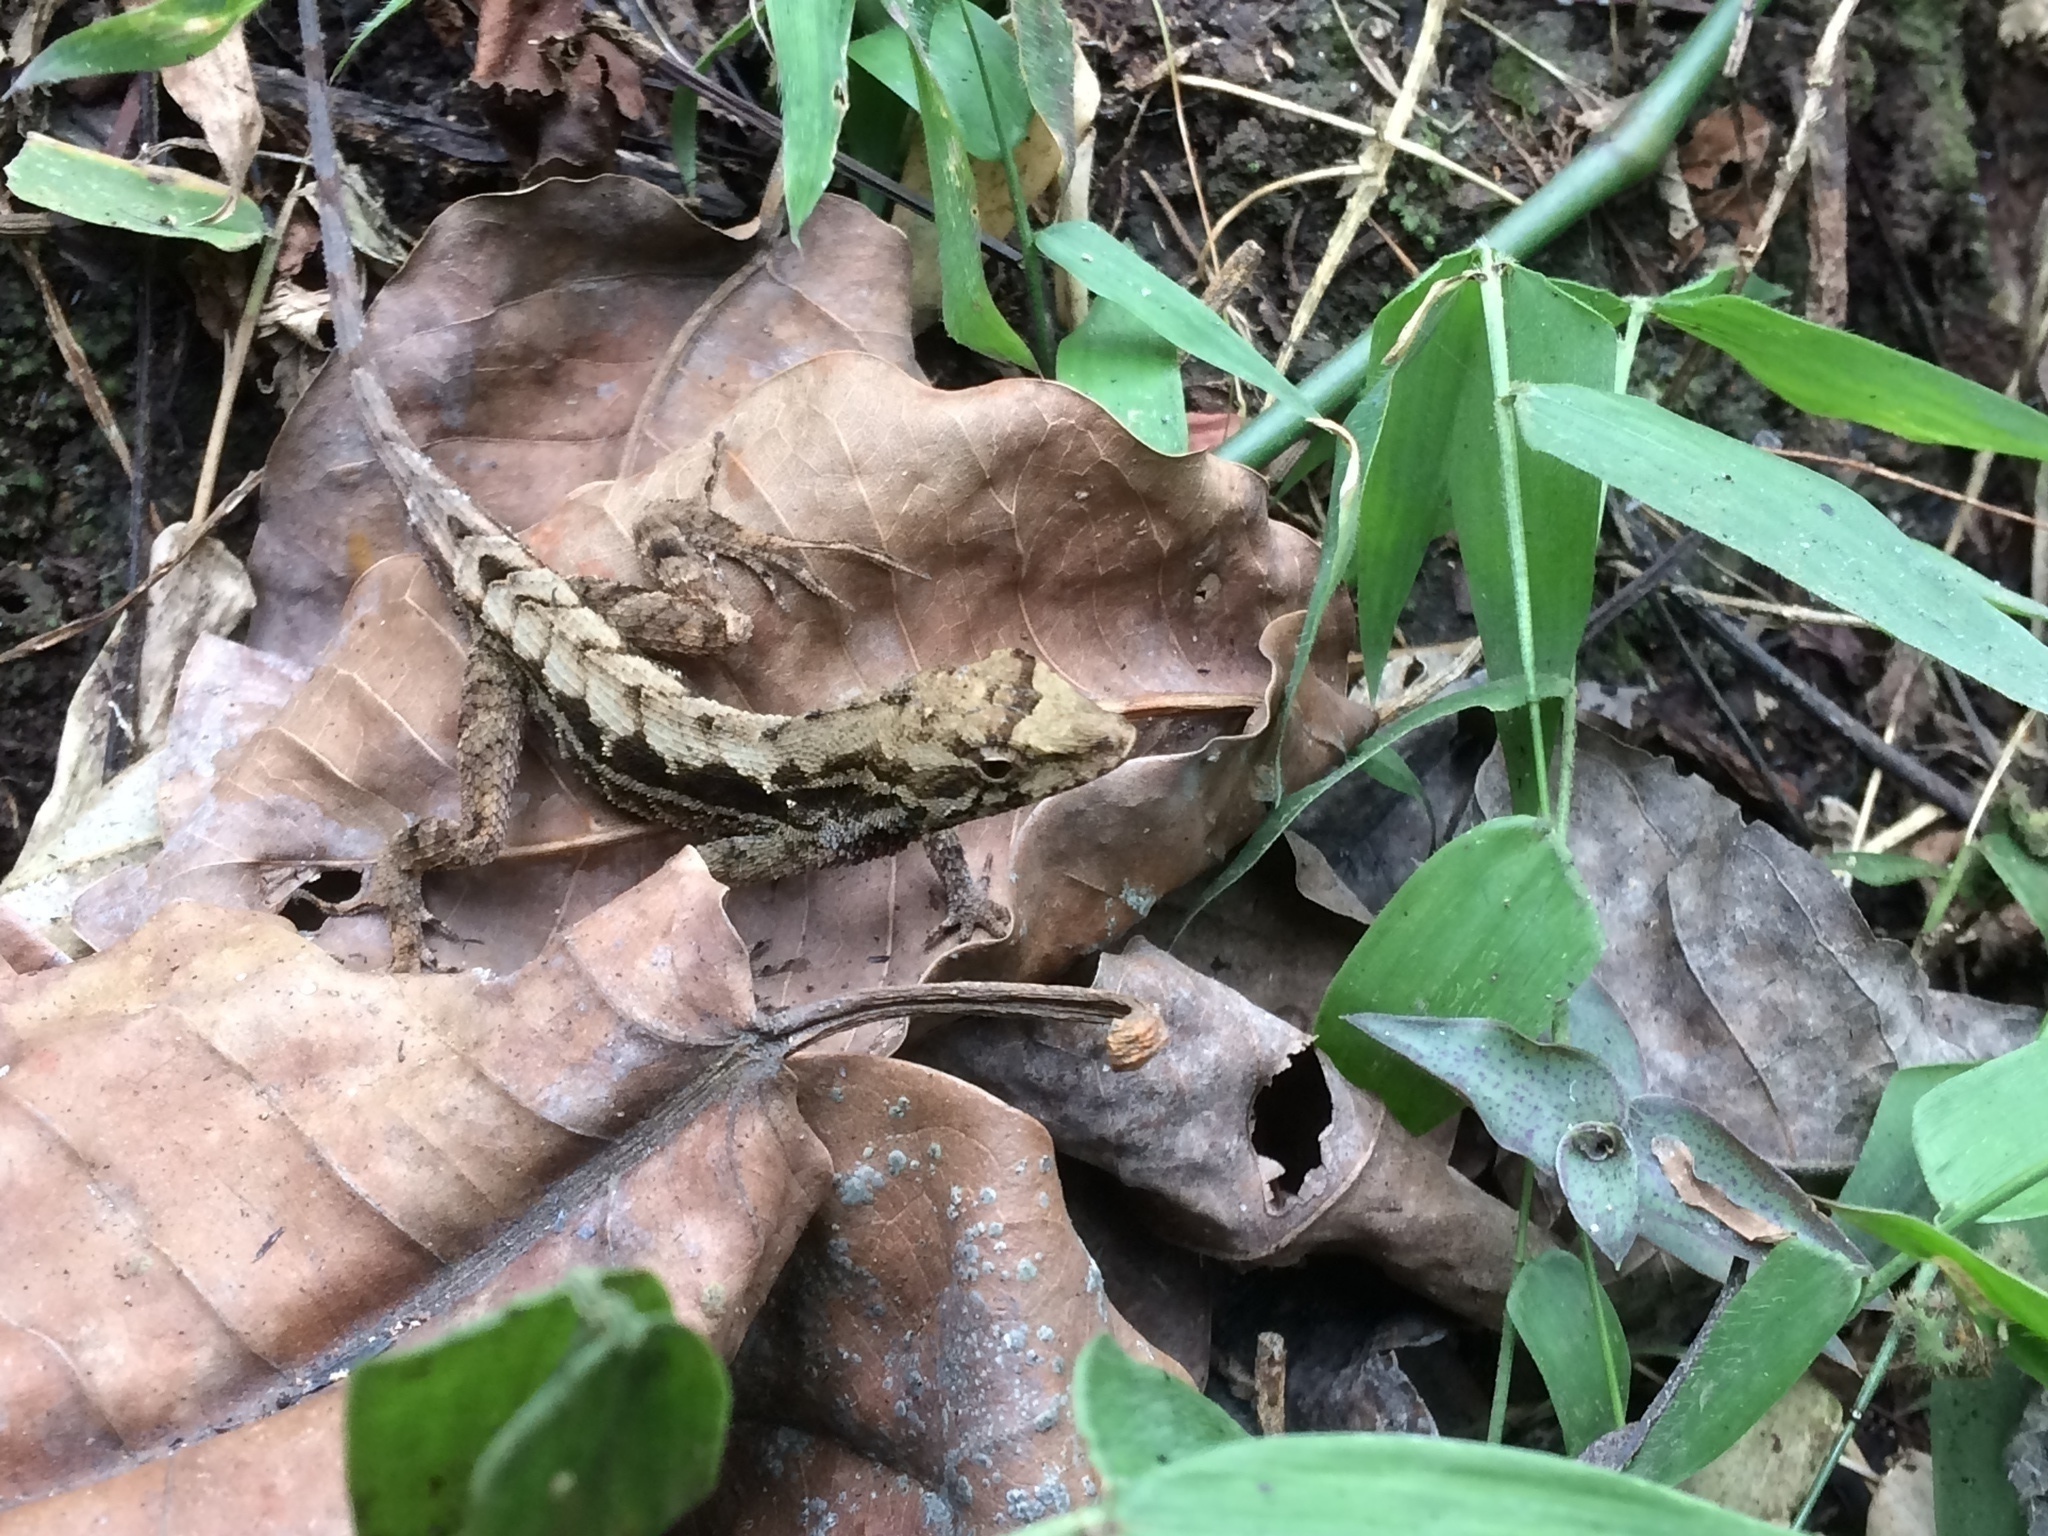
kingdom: Animalia
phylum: Chordata
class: Squamata
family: Dactyloidae
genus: Anolis
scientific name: Anolis tropidonotus
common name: Greater scaly anole
